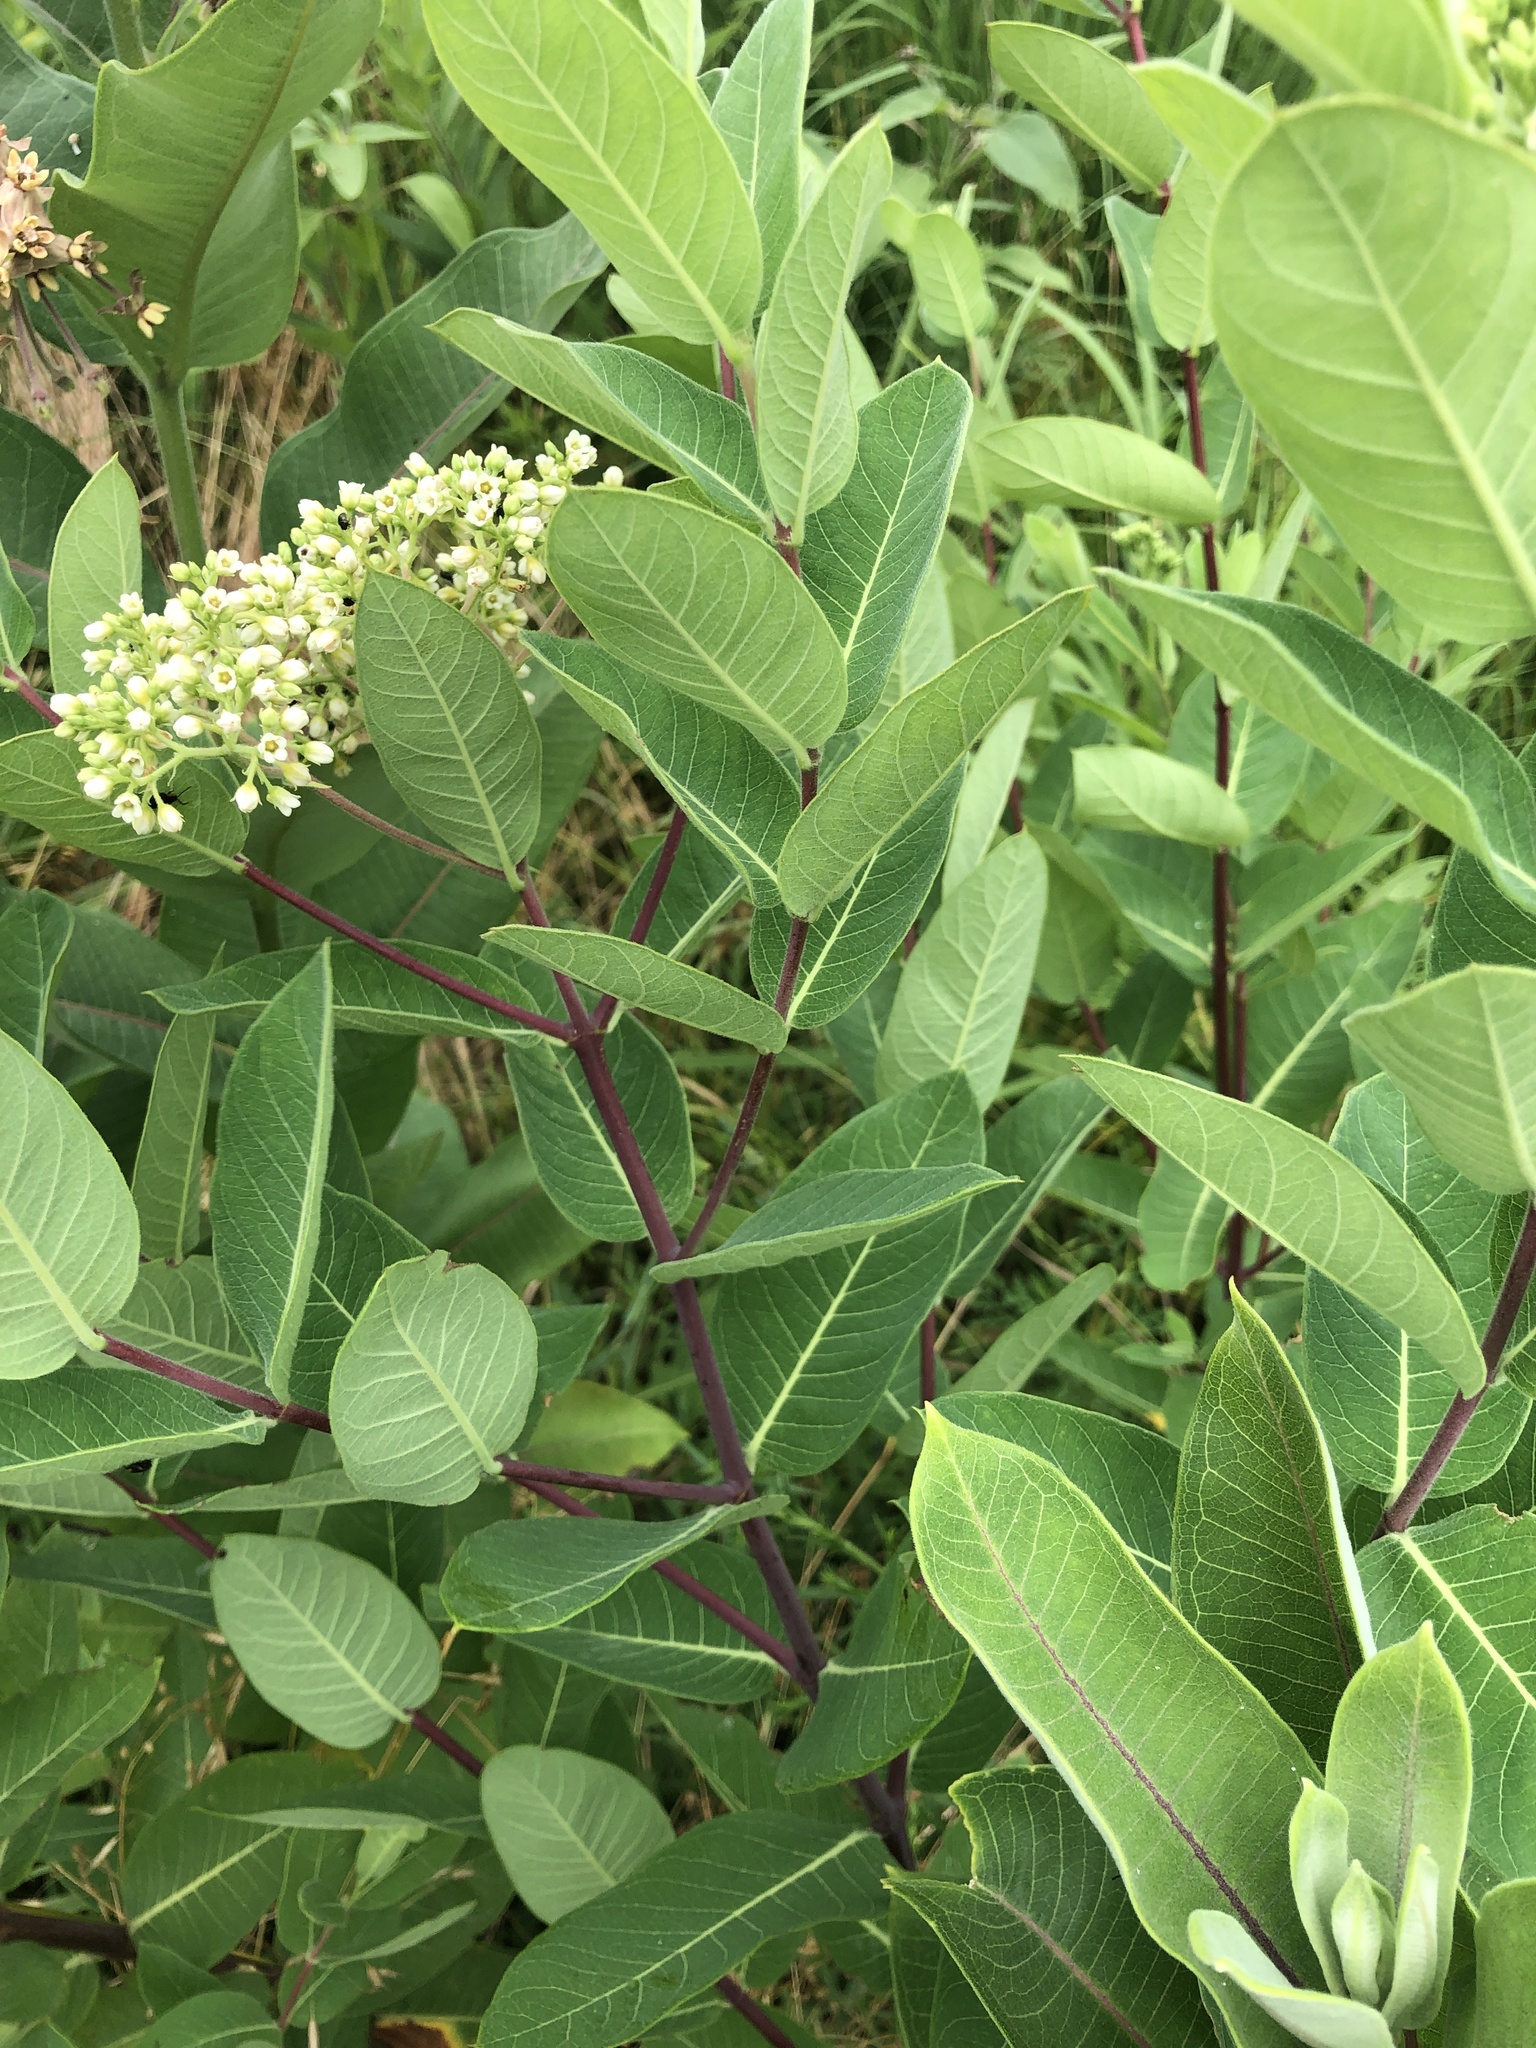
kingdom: Plantae
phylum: Tracheophyta
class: Magnoliopsida
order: Gentianales
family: Apocynaceae
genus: Apocynum
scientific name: Apocynum cannabinum
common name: Hemp dogbane
